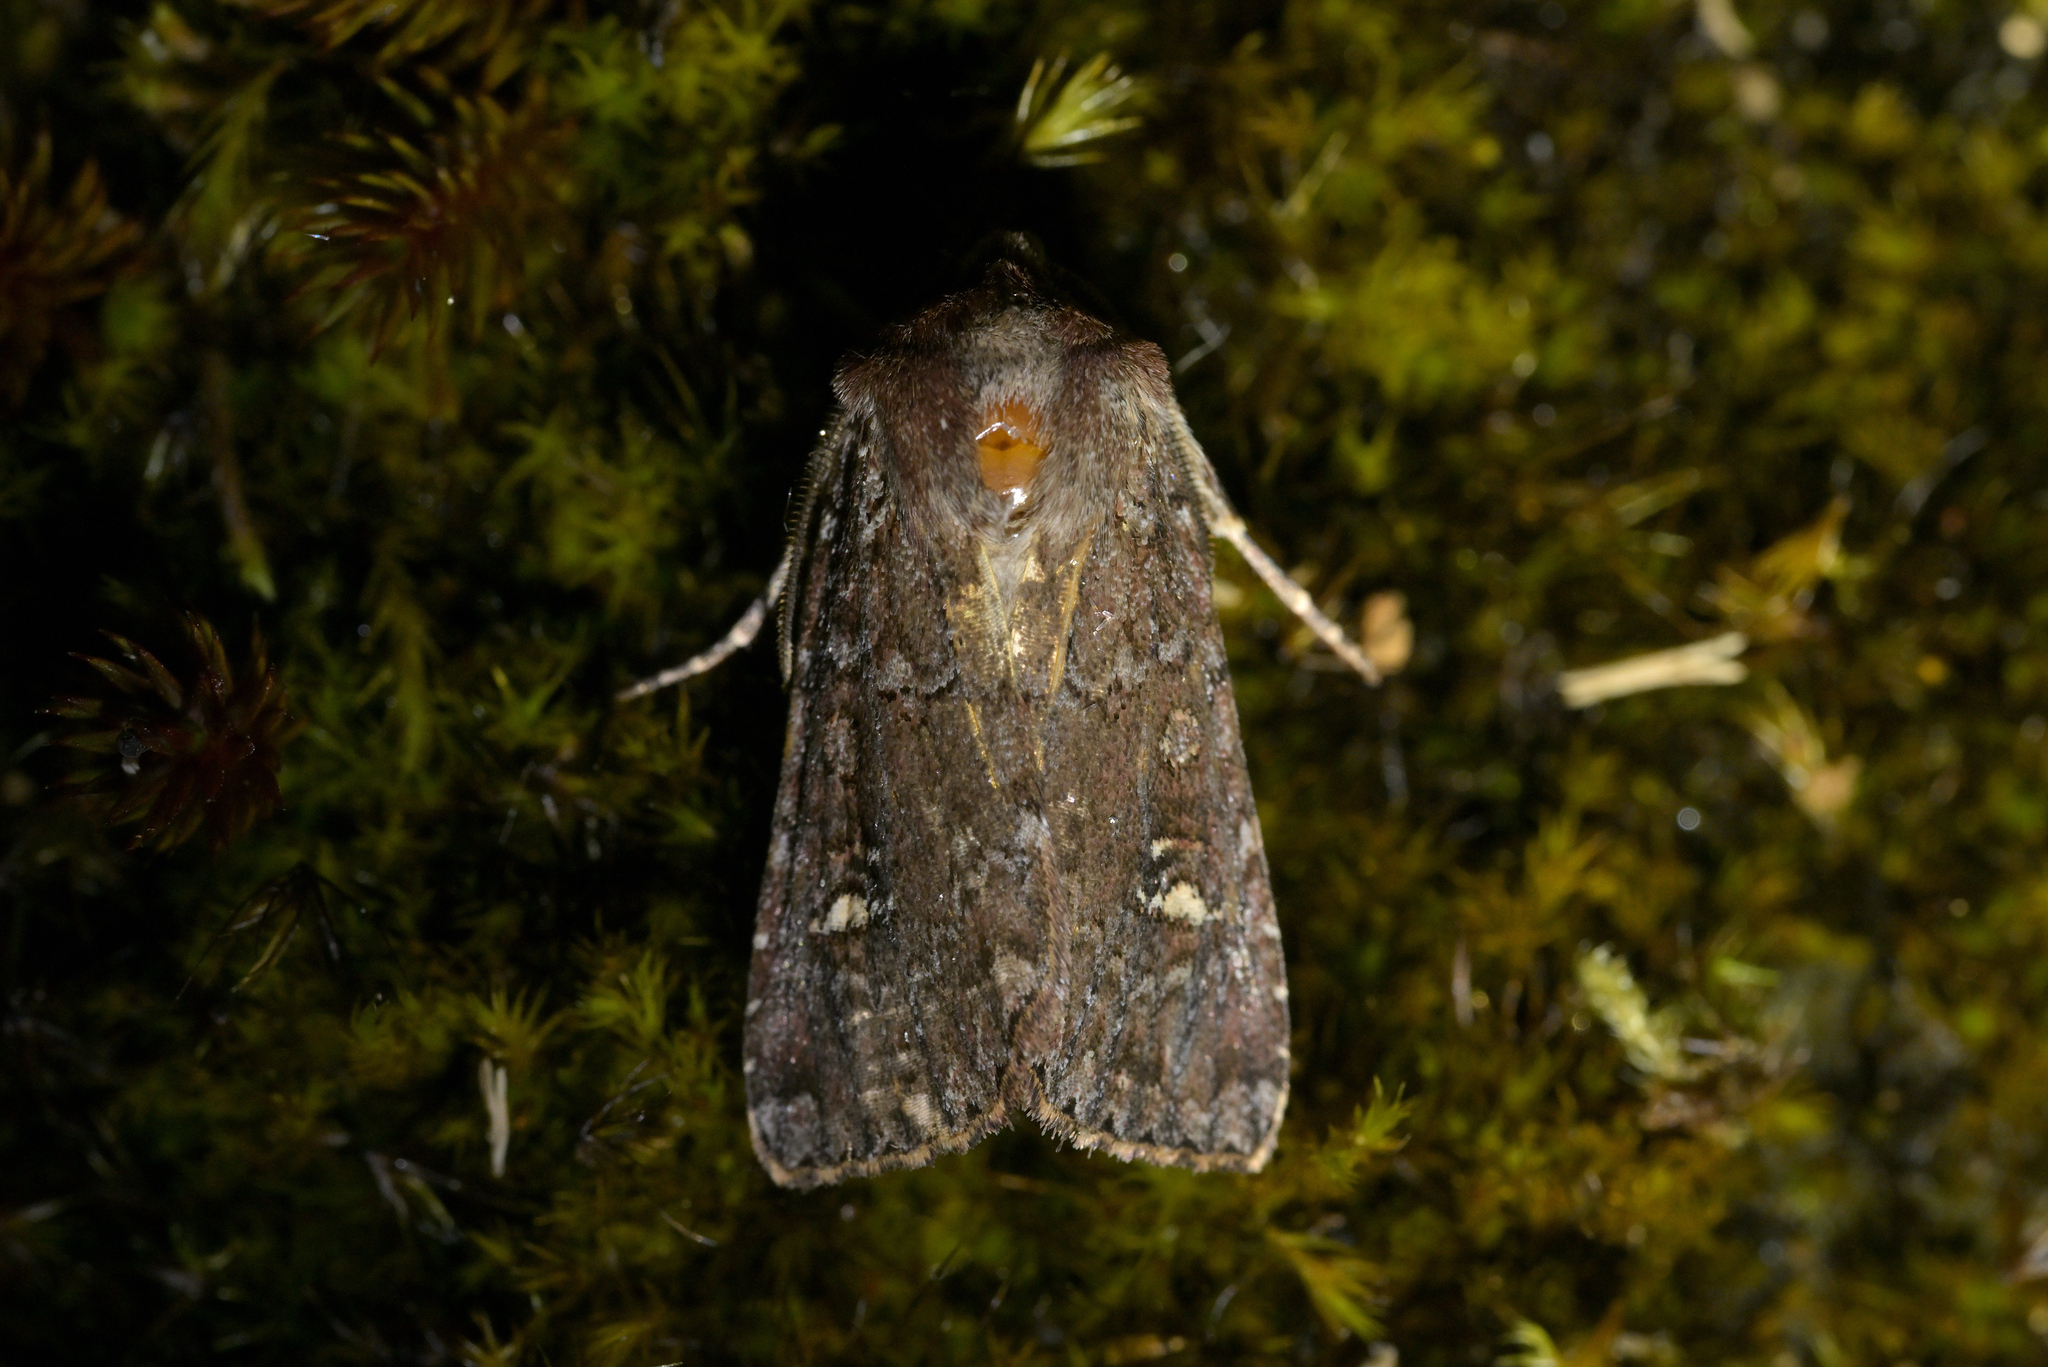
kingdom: Animalia
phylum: Arthropoda
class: Insecta
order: Lepidoptera
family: Noctuidae
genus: Ichneutica
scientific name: Ichneutica
